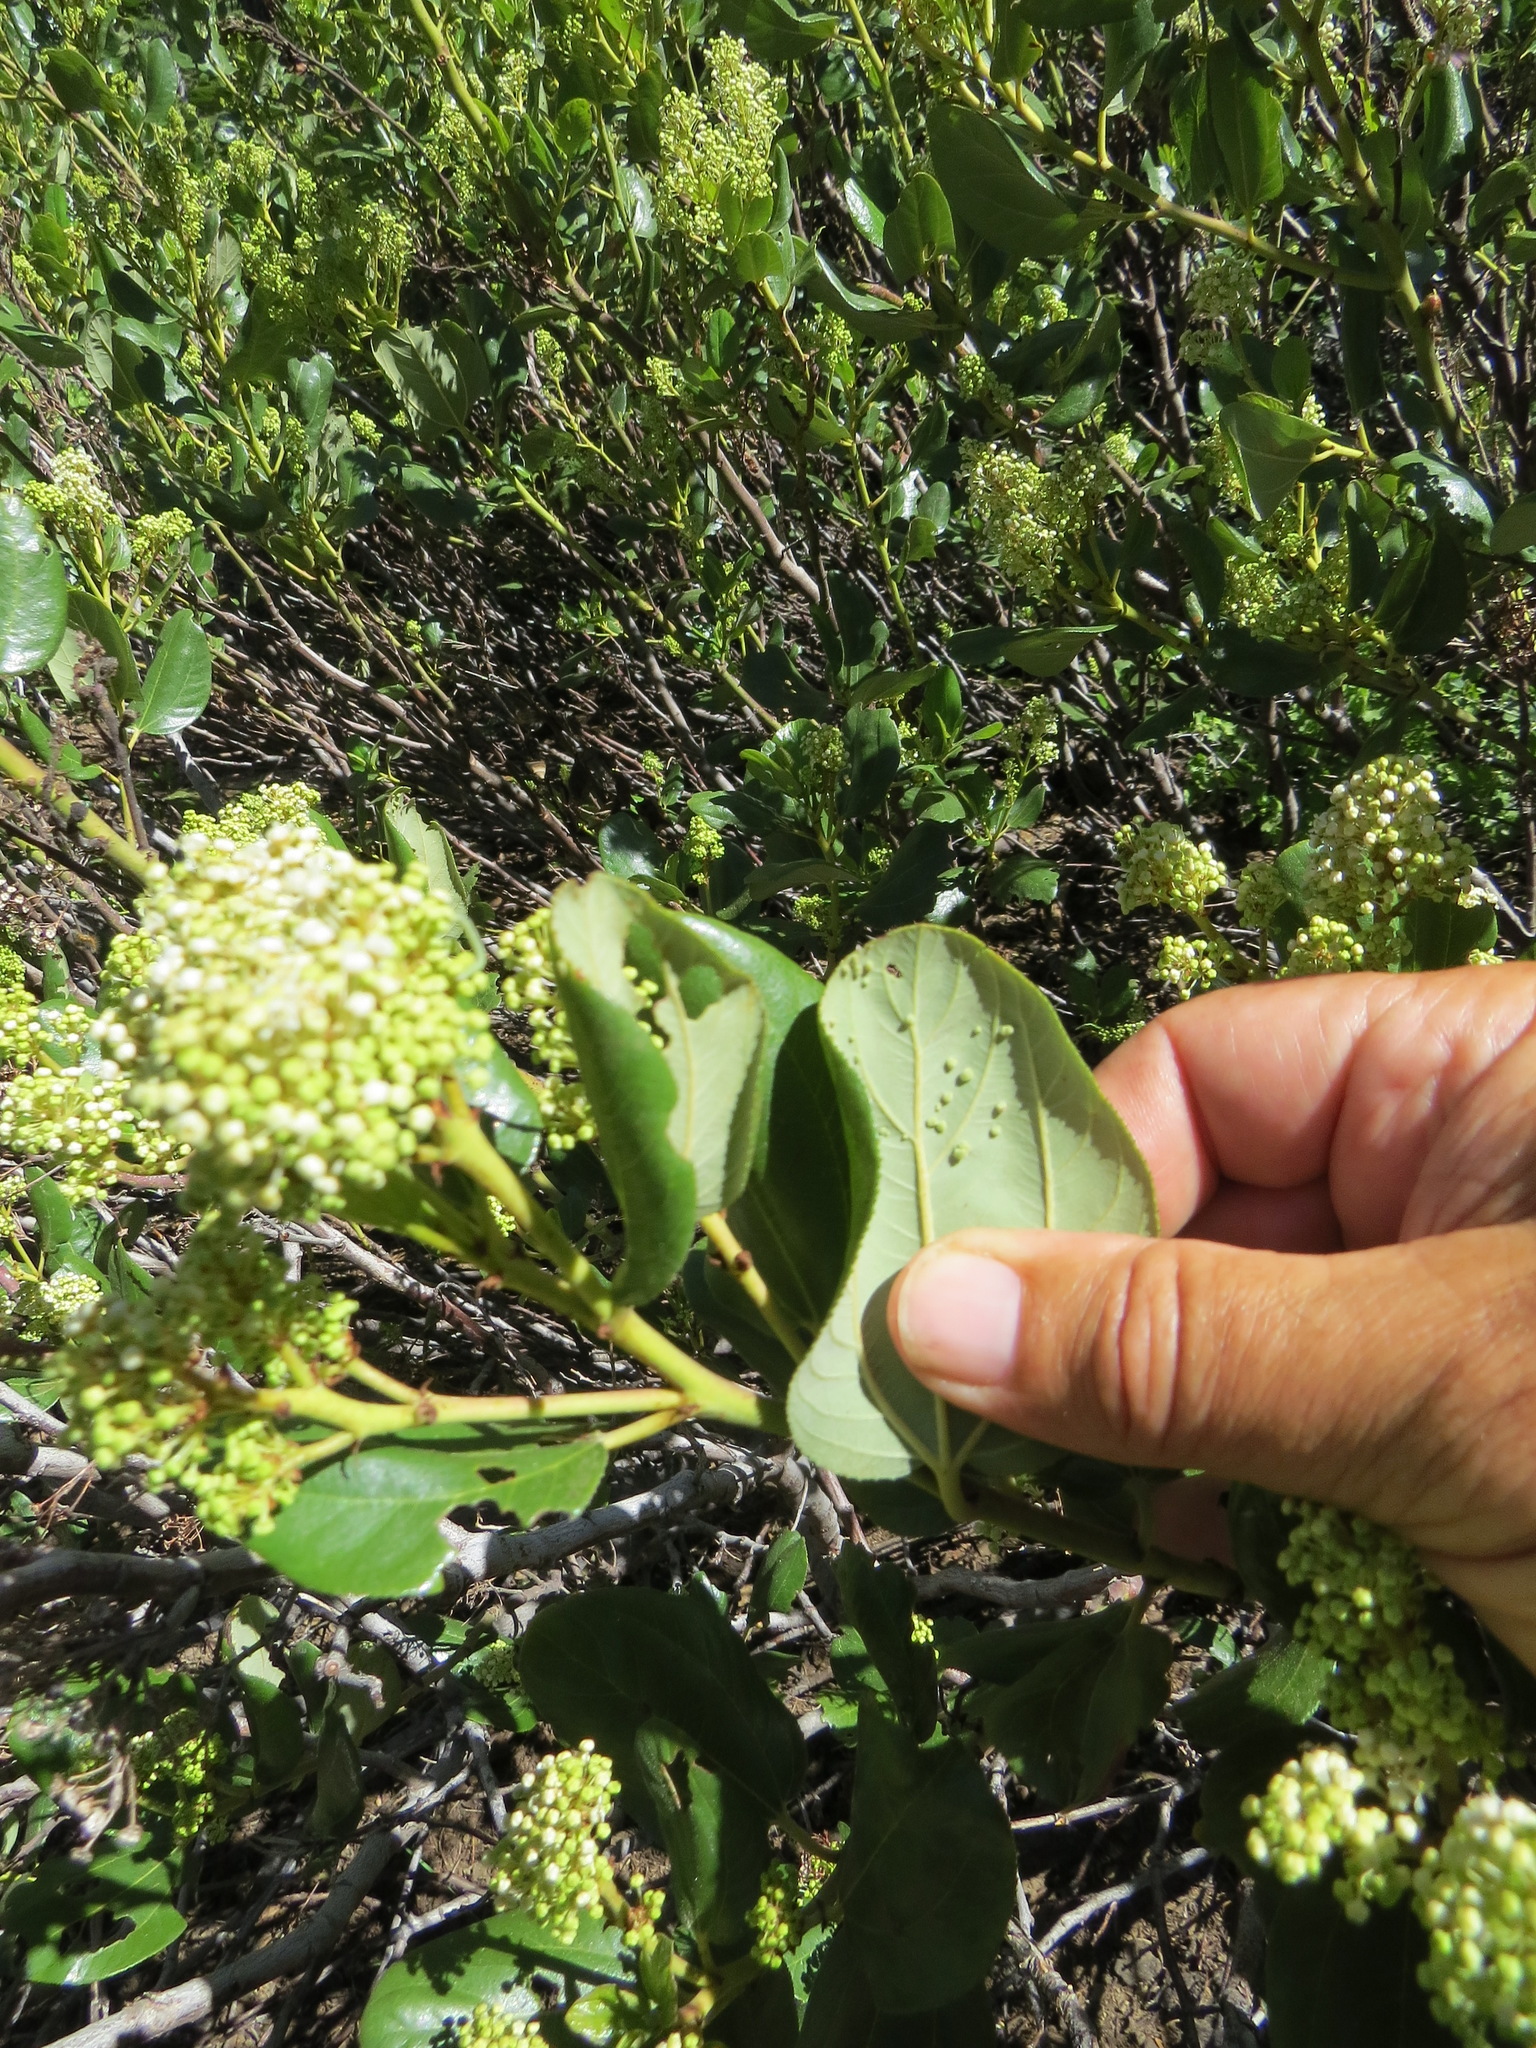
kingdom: Animalia
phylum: Arthropoda
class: Arachnida
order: Trombidiformes
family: Eriophyidae
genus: Aceria
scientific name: Aceria
